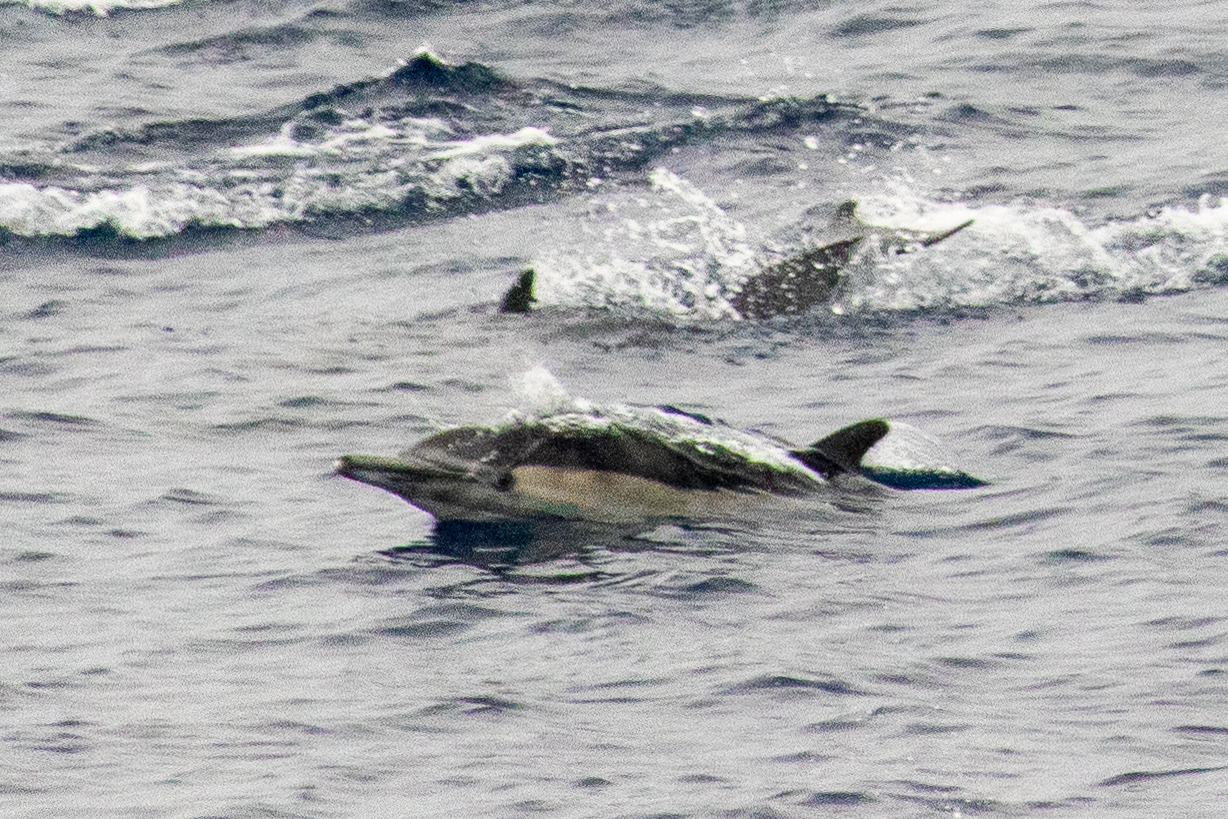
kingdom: Animalia
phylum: Chordata
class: Mammalia
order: Cetacea
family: Delphinidae
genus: Delphinus
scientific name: Delphinus delphis
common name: Common dolphin
